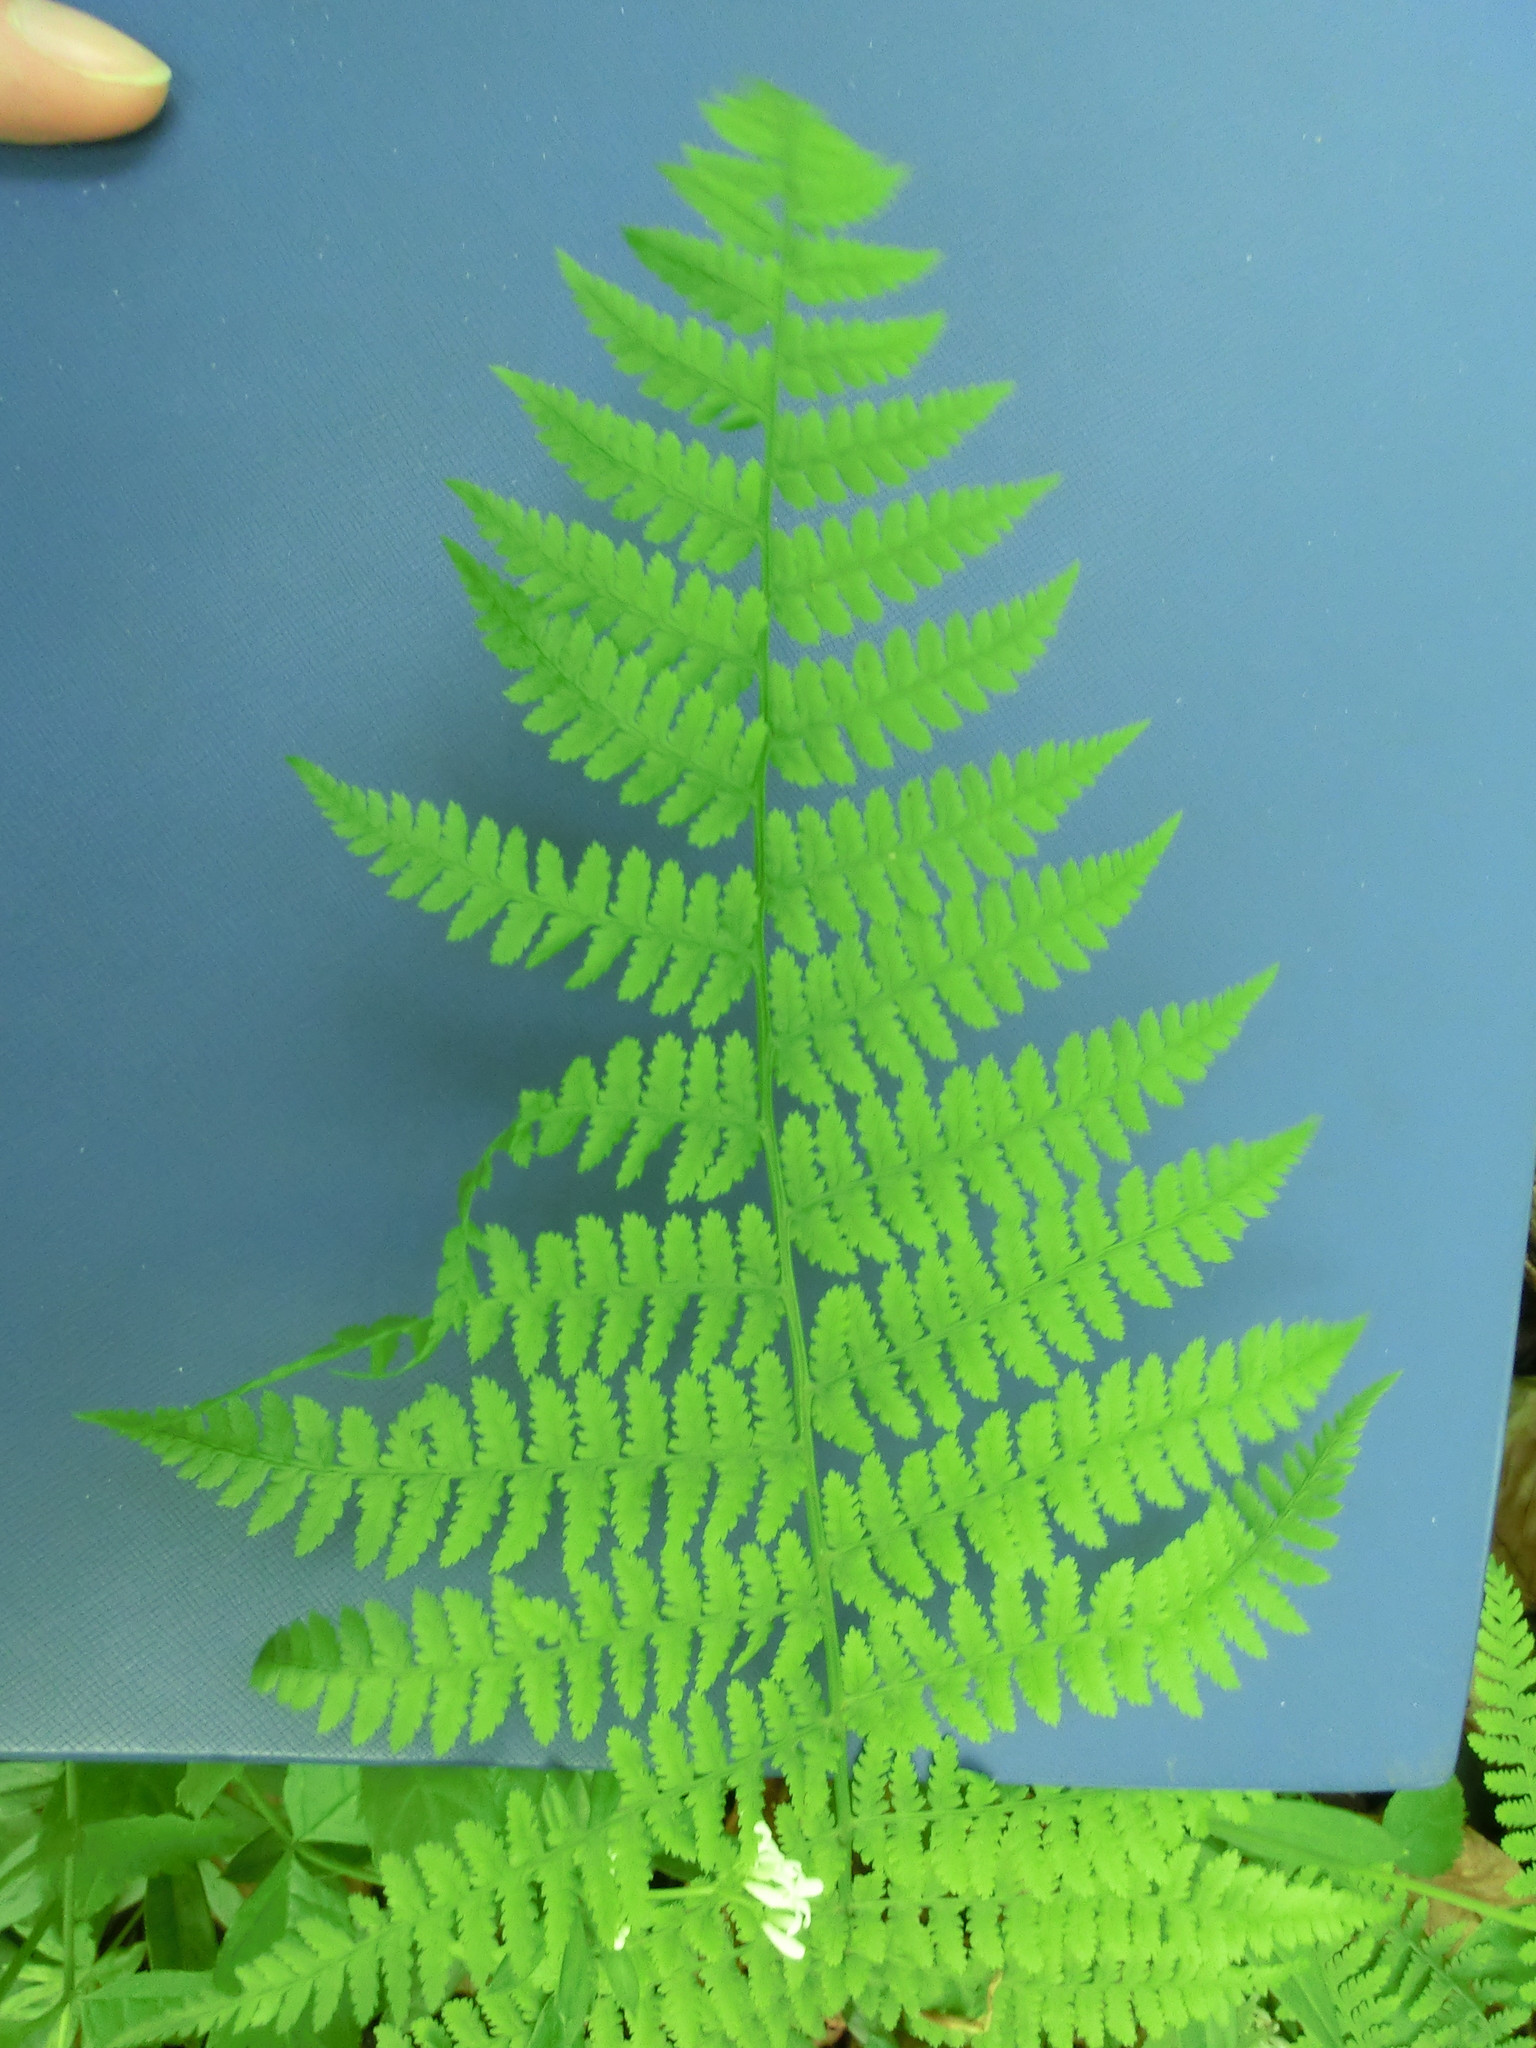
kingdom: Plantae
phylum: Tracheophyta
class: Polypodiopsida
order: Polypodiales
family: Athyriaceae
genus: Athyrium
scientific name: Athyrium filix-femina
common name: Lady fern
